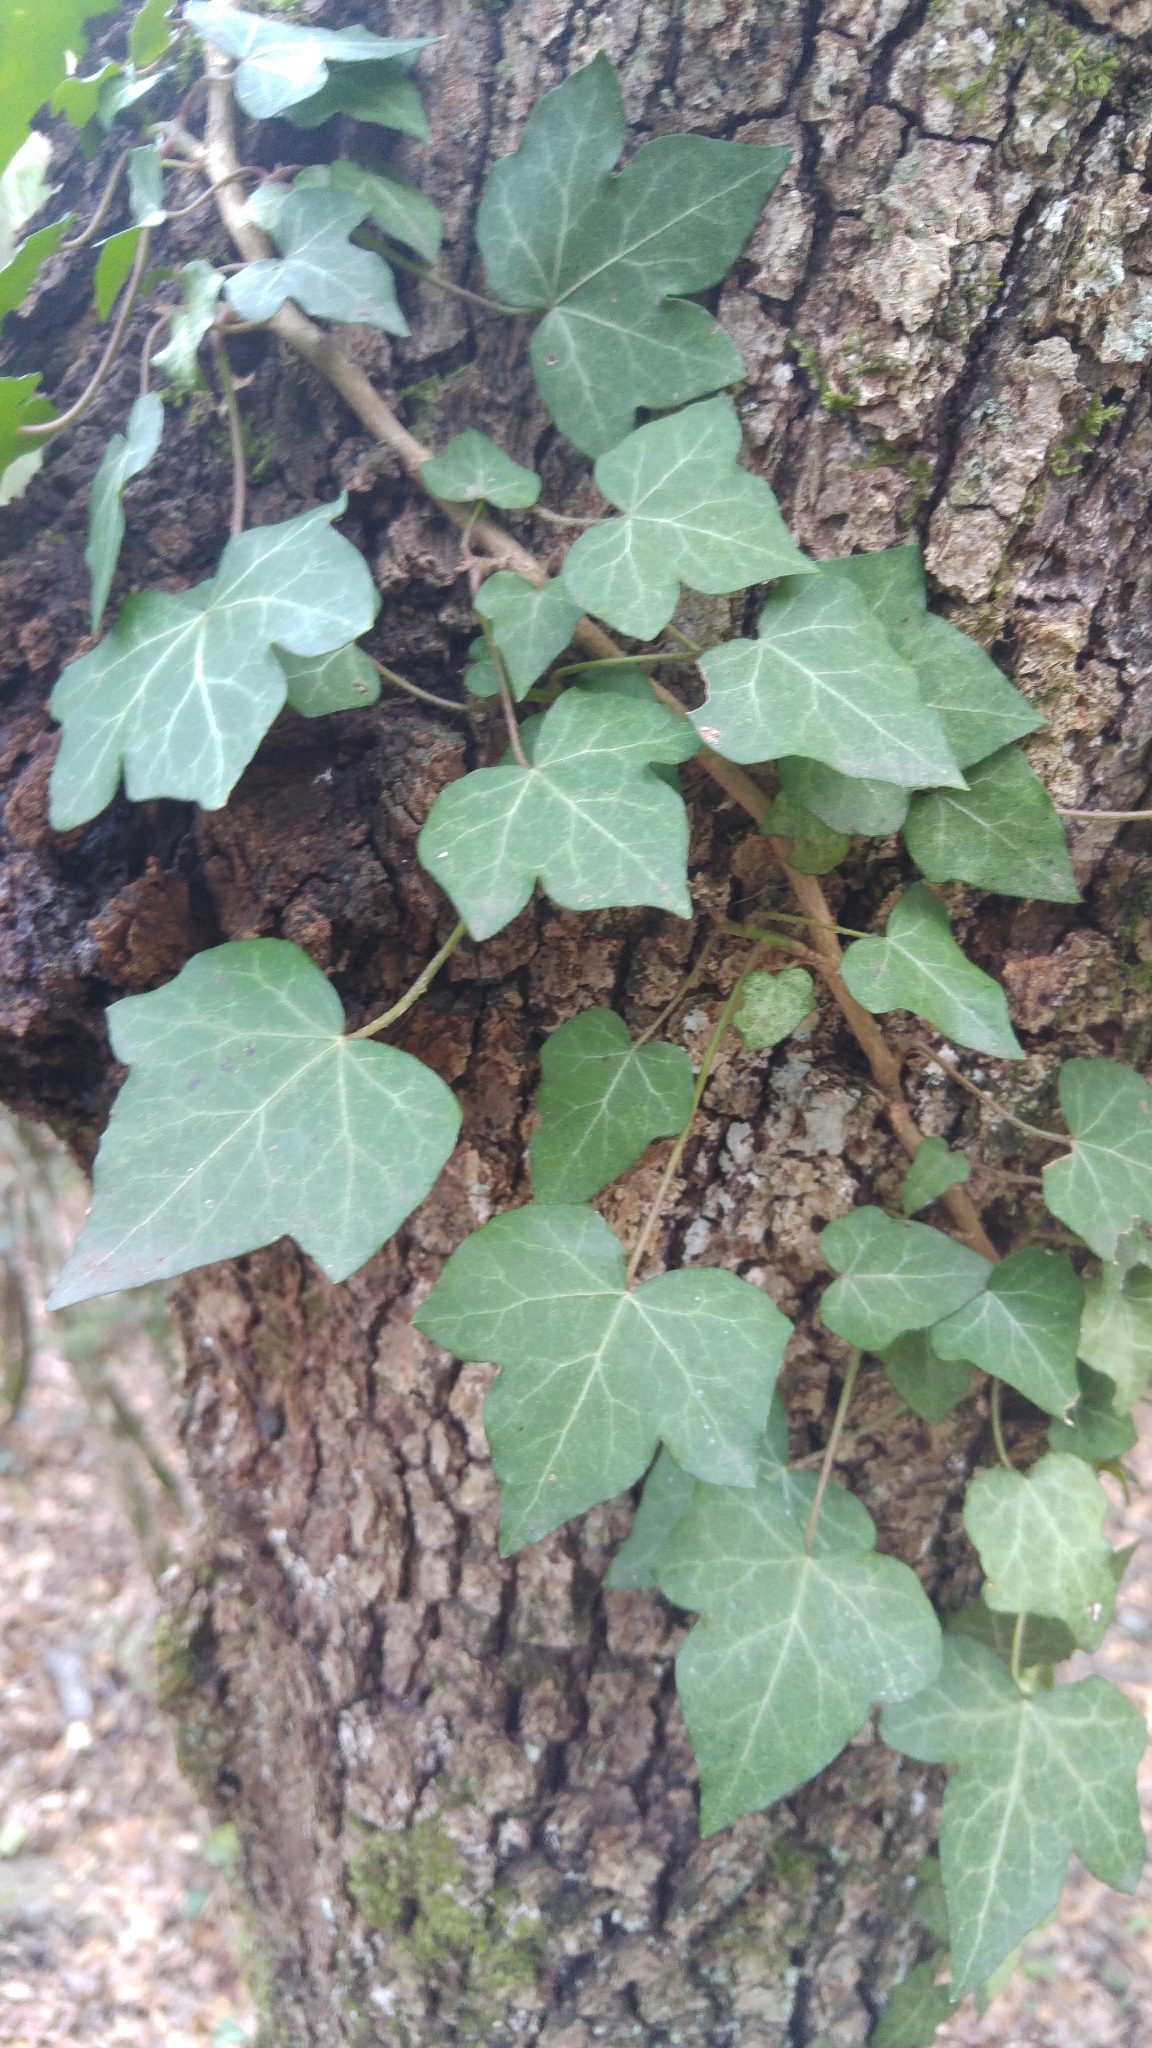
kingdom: Plantae
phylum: Tracheophyta
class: Magnoliopsida
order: Apiales
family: Araliaceae
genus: Hedera
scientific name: Hedera helix
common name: Ivy
